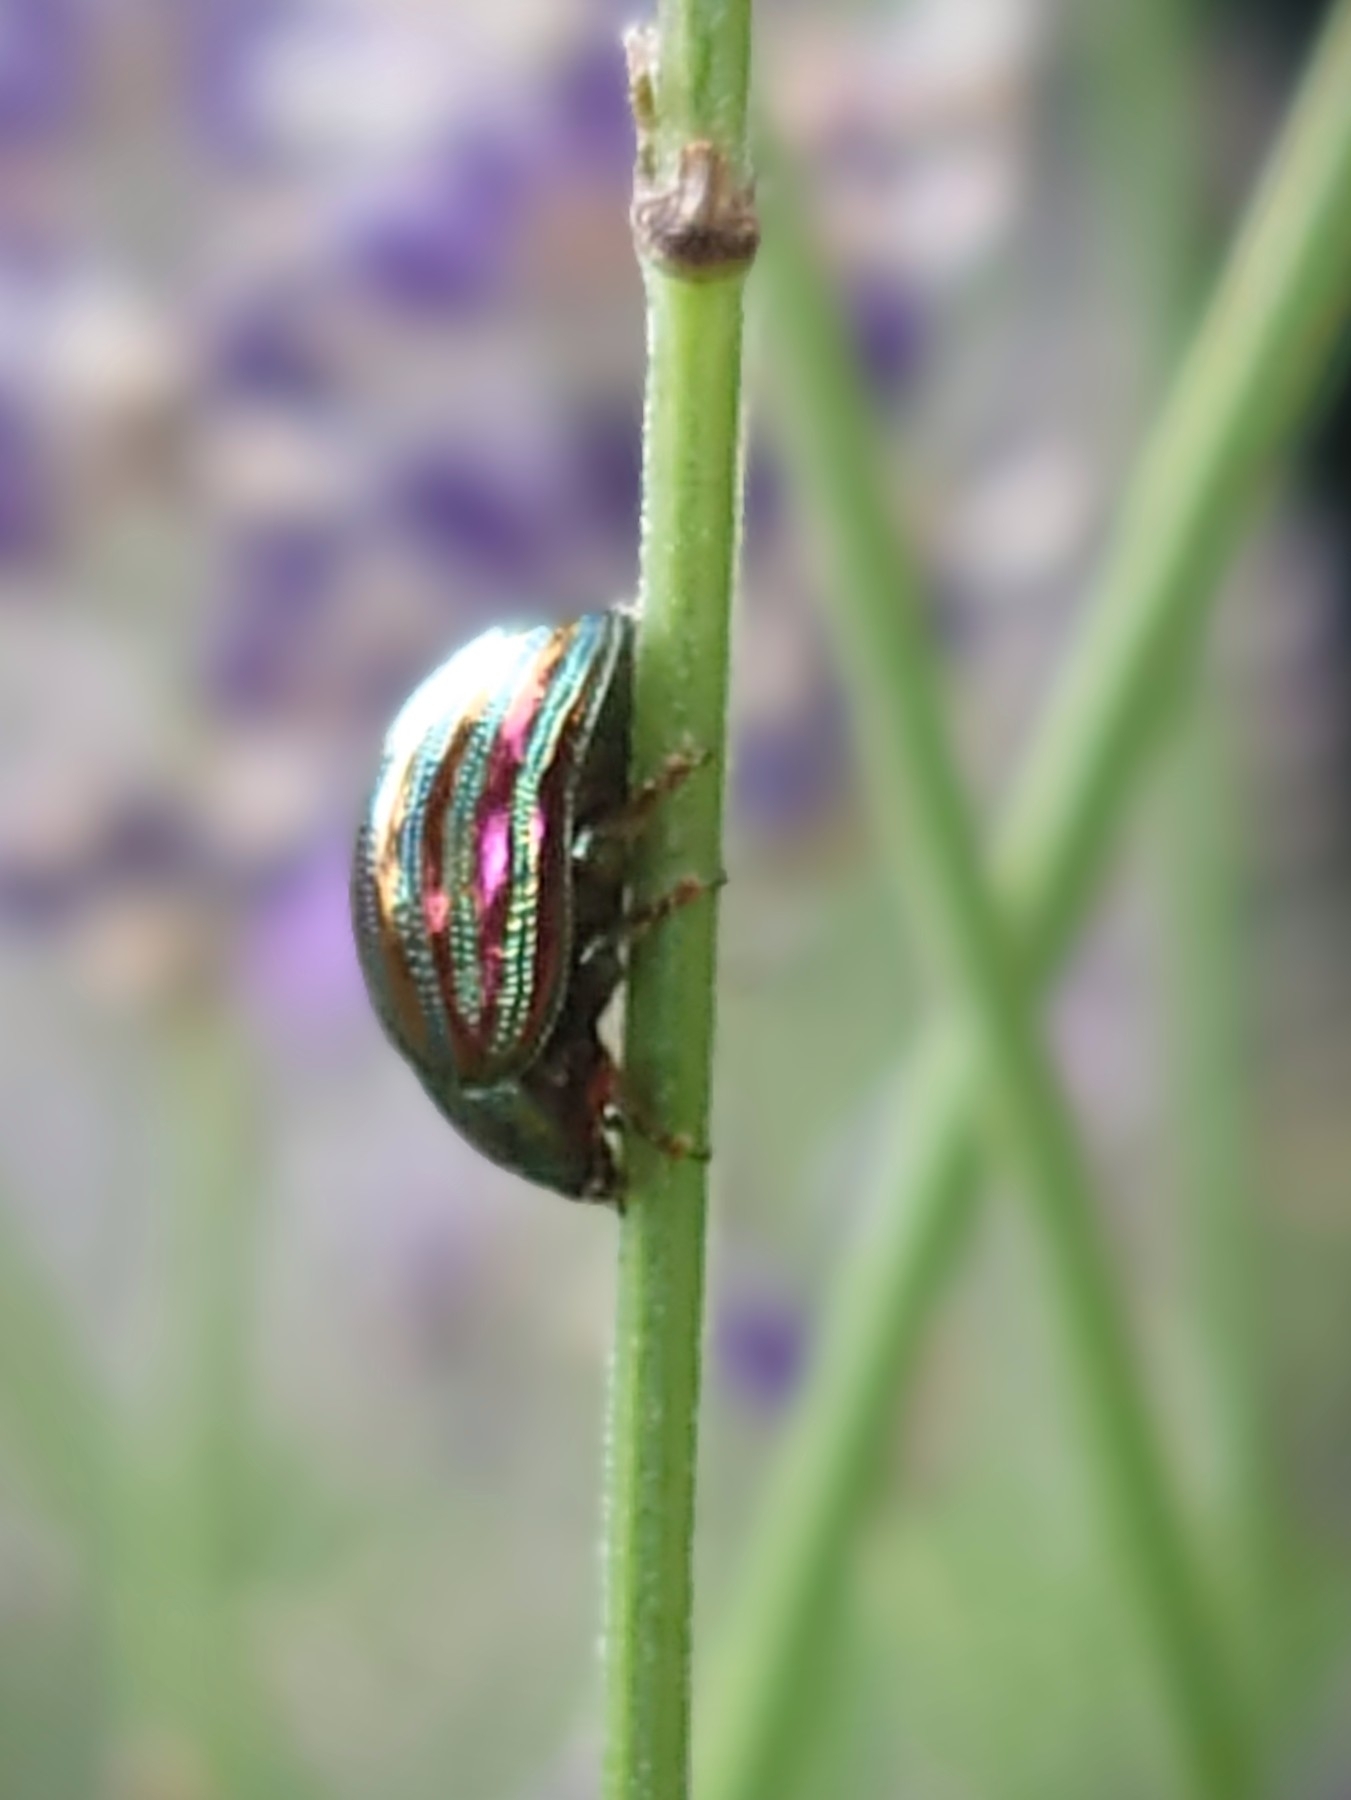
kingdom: Animalia
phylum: Arthropoda
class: Insecta
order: Coleoptera
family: Chrysomelidae
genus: Chrysolina
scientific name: Chrysolina americana
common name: Rosemary beetle
